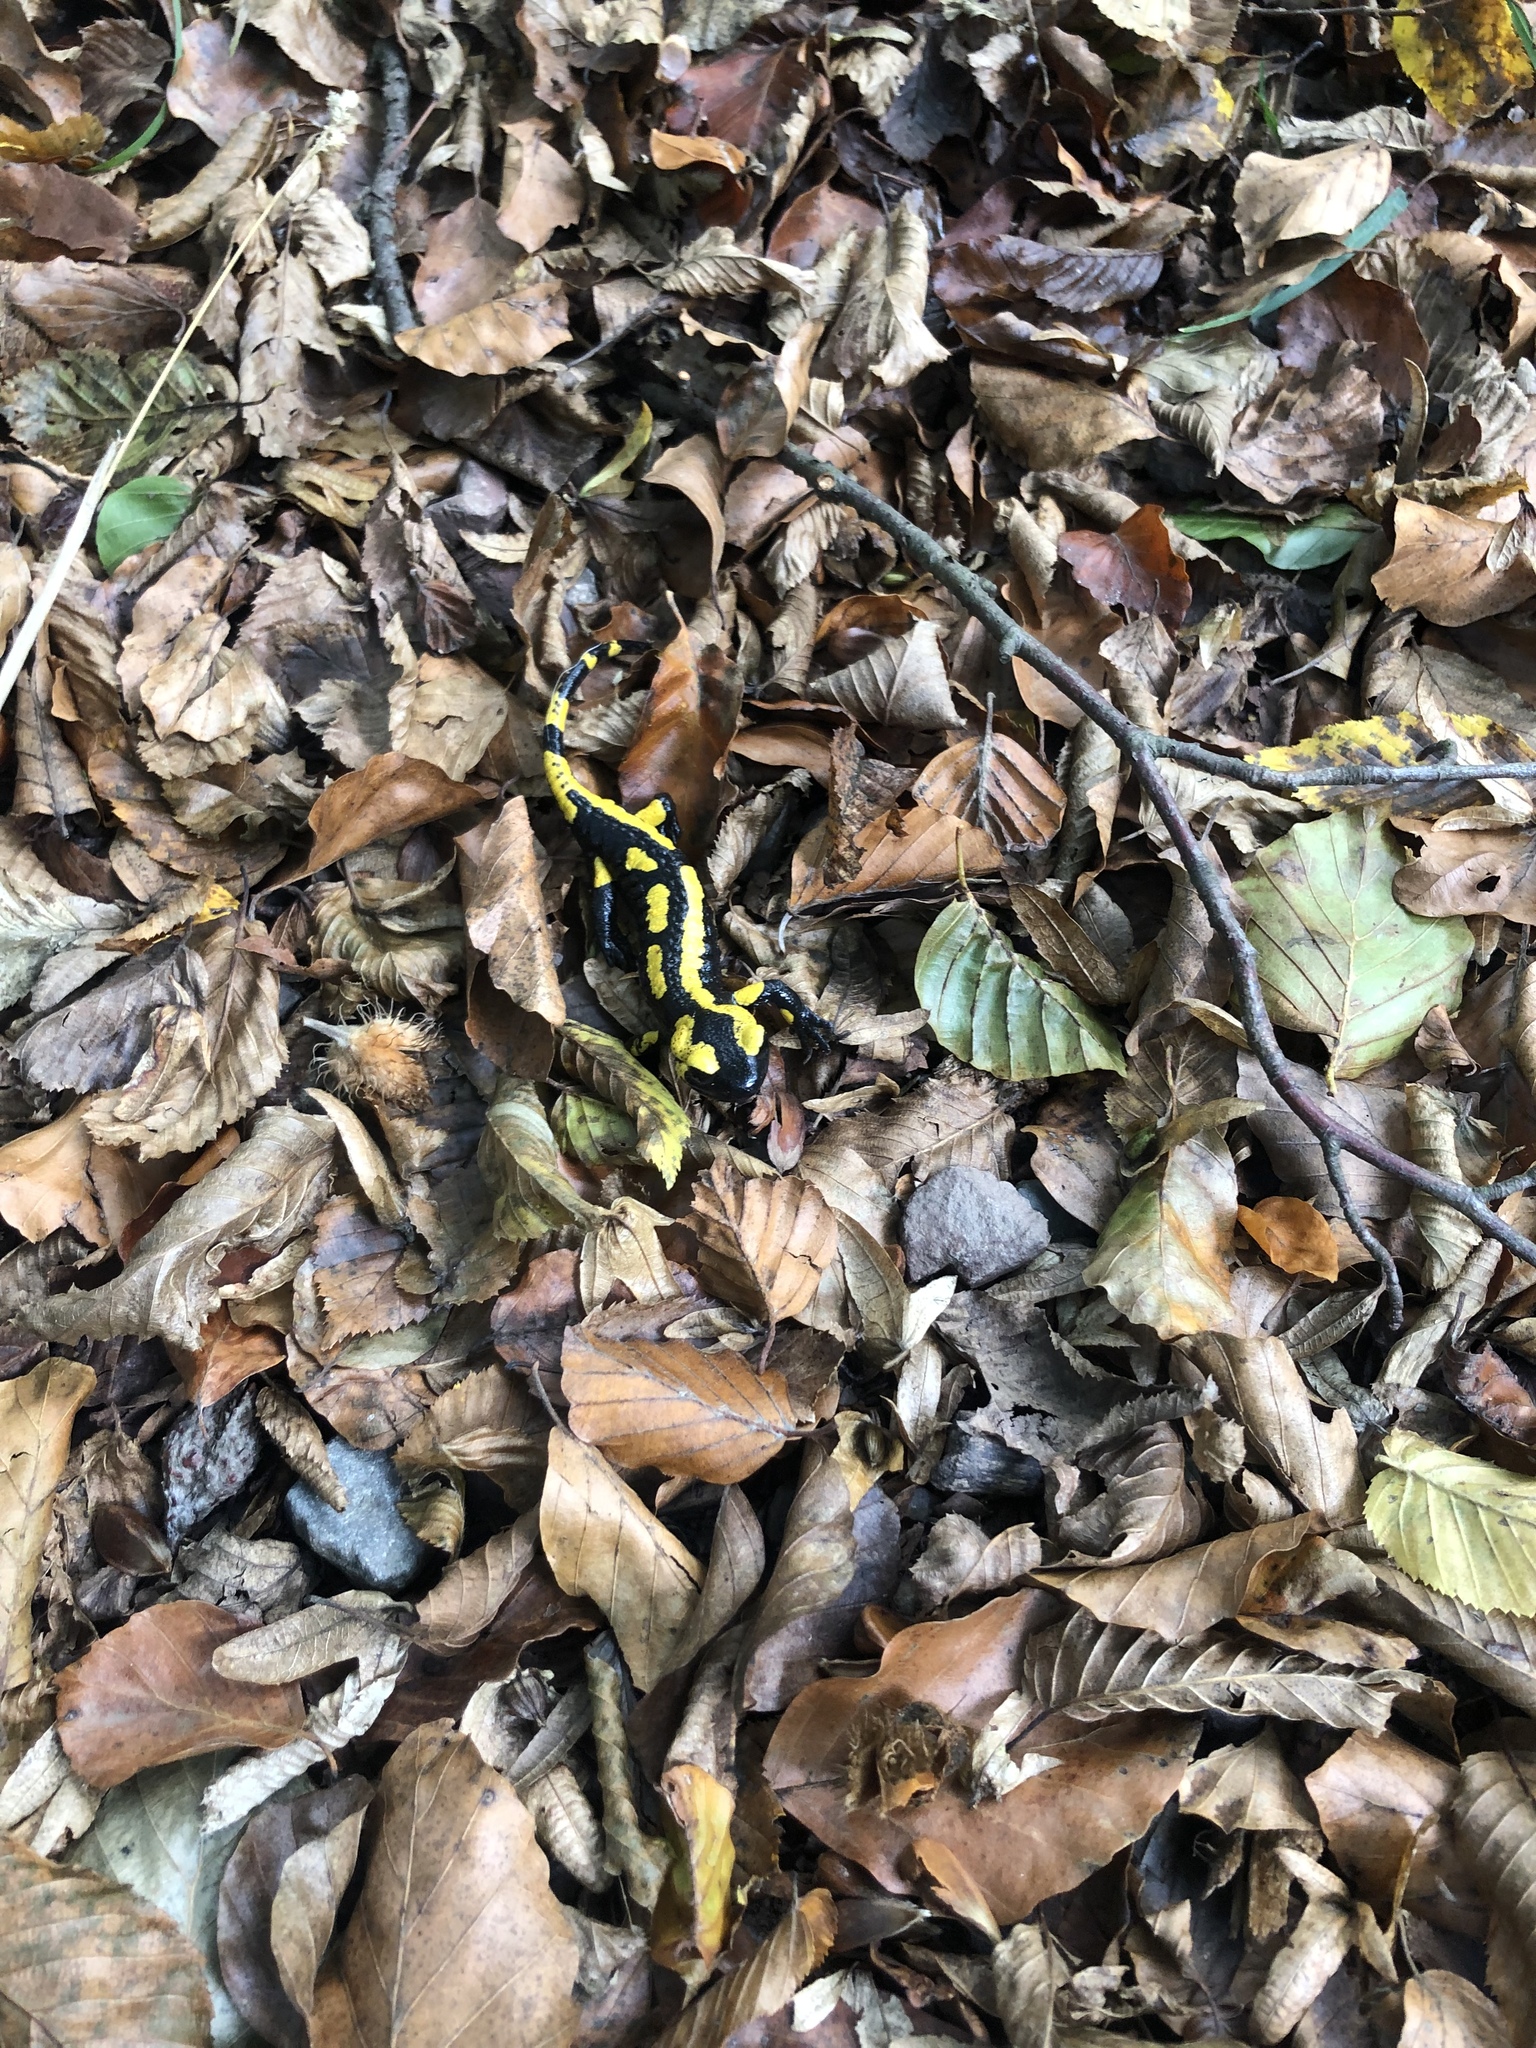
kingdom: Animalia
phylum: Chordata
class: Amphibia
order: Caudata
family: Salamandridae
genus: Salamandra
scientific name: Salamandra salamandra
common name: Fire salamander
